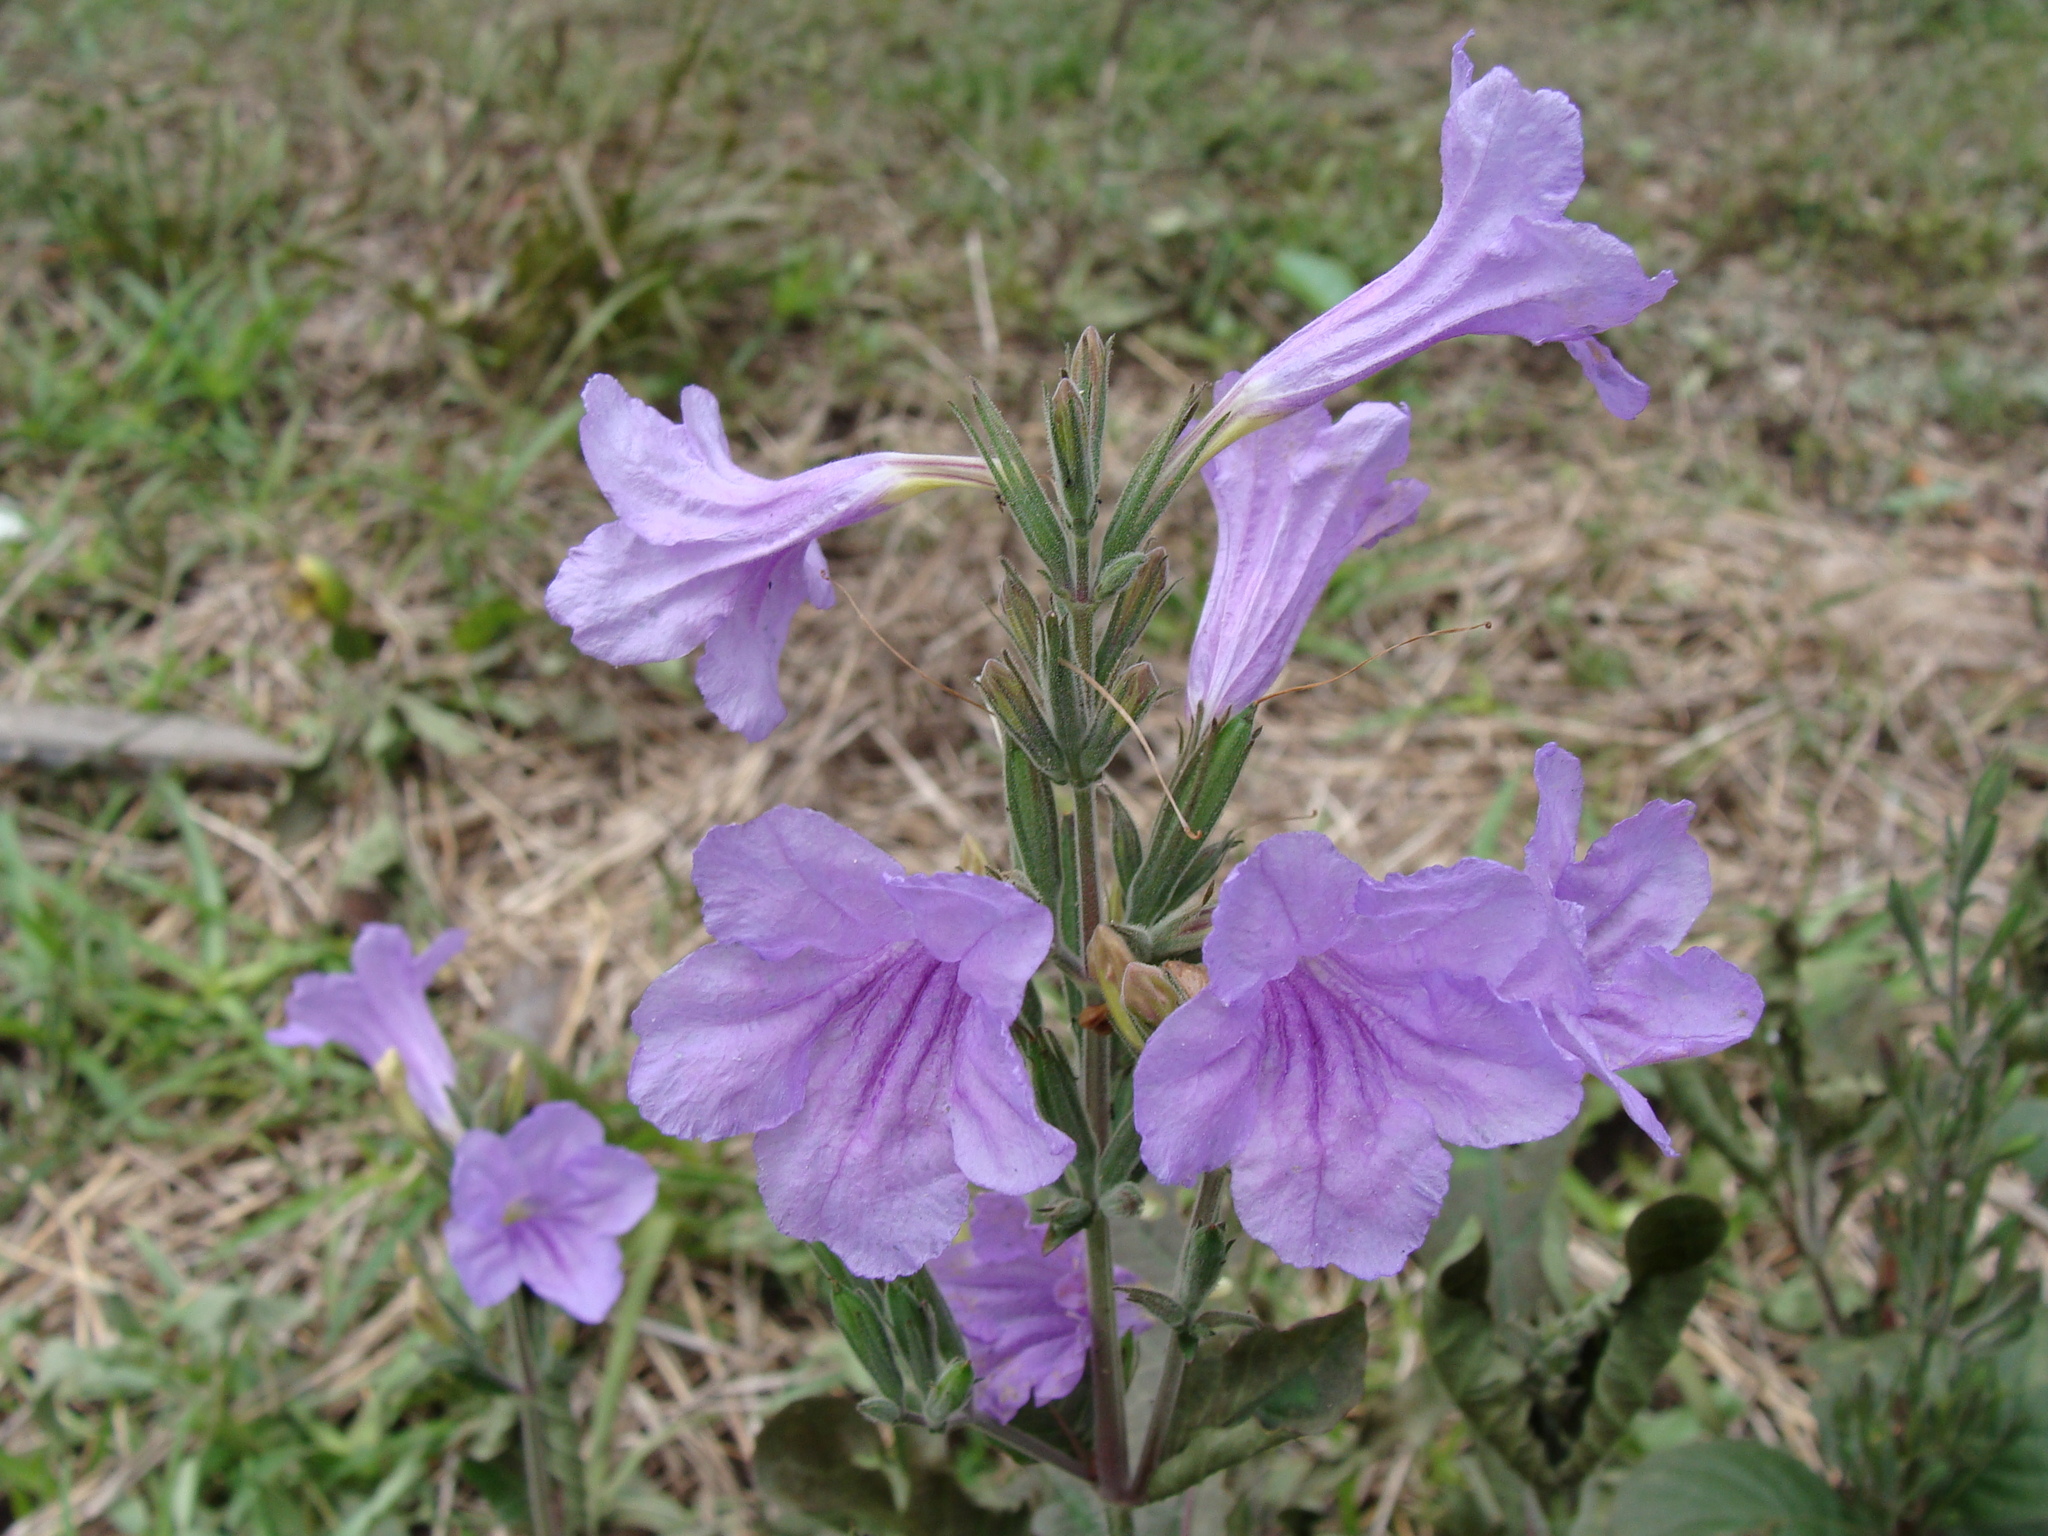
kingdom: Plantae
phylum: Tracheophyta
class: Magnoliopsida
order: Lamiales
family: Acanthaceae
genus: Ruellia
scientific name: Ruellia ciliatiflora
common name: Hairyflower wild petunia
